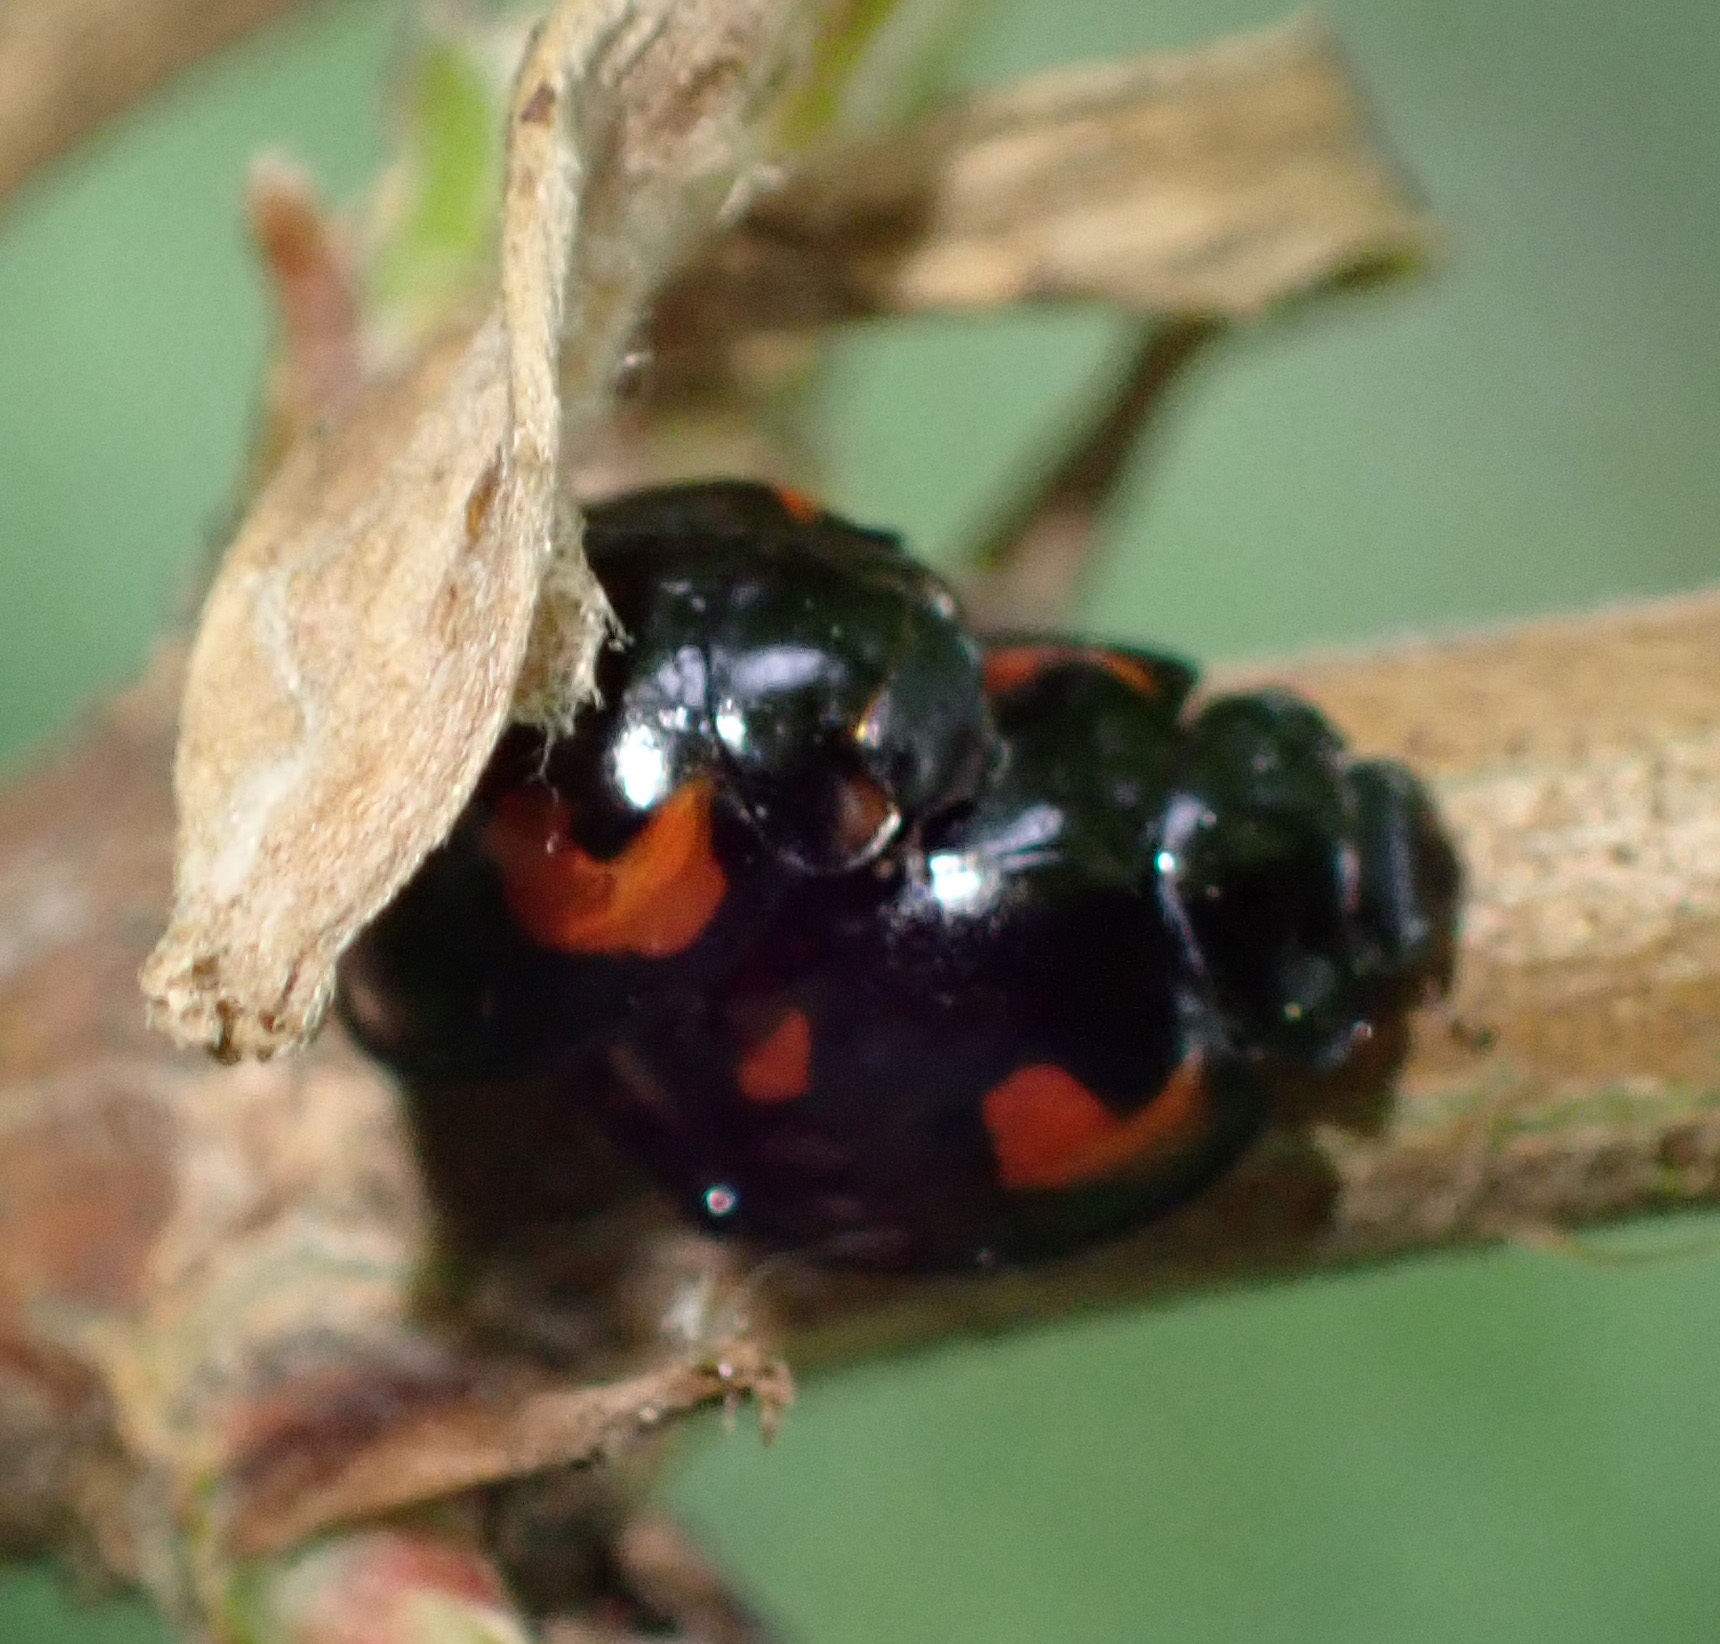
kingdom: Animalia
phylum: Arthropoda
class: Insecta
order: Coleoptera
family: Coccinellidae
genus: Brumus
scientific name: Brumus quadripustulatus
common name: Ladybird beetle
